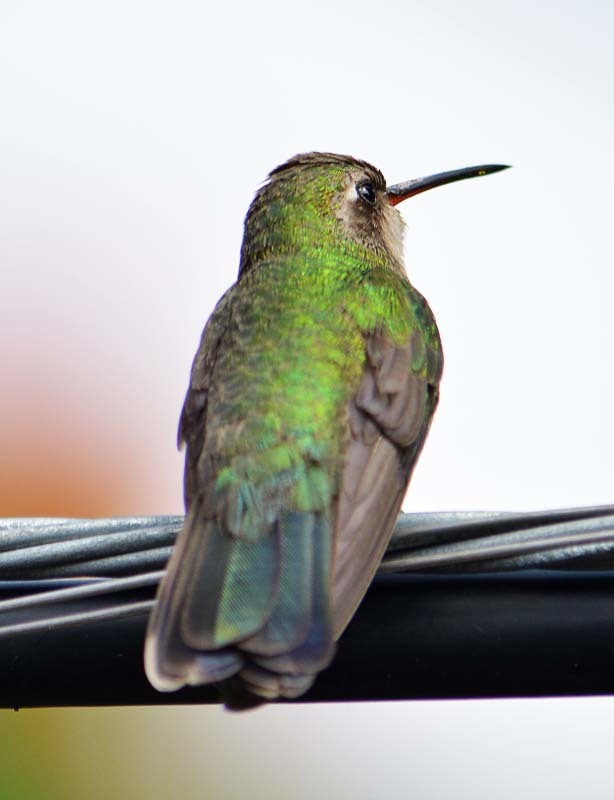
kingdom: Animalia
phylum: Chordata
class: Aves
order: Apodiformes
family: Trochilidae
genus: Cynanthus
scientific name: Cynanthus latirostris
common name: Broad-billed hummingbird
